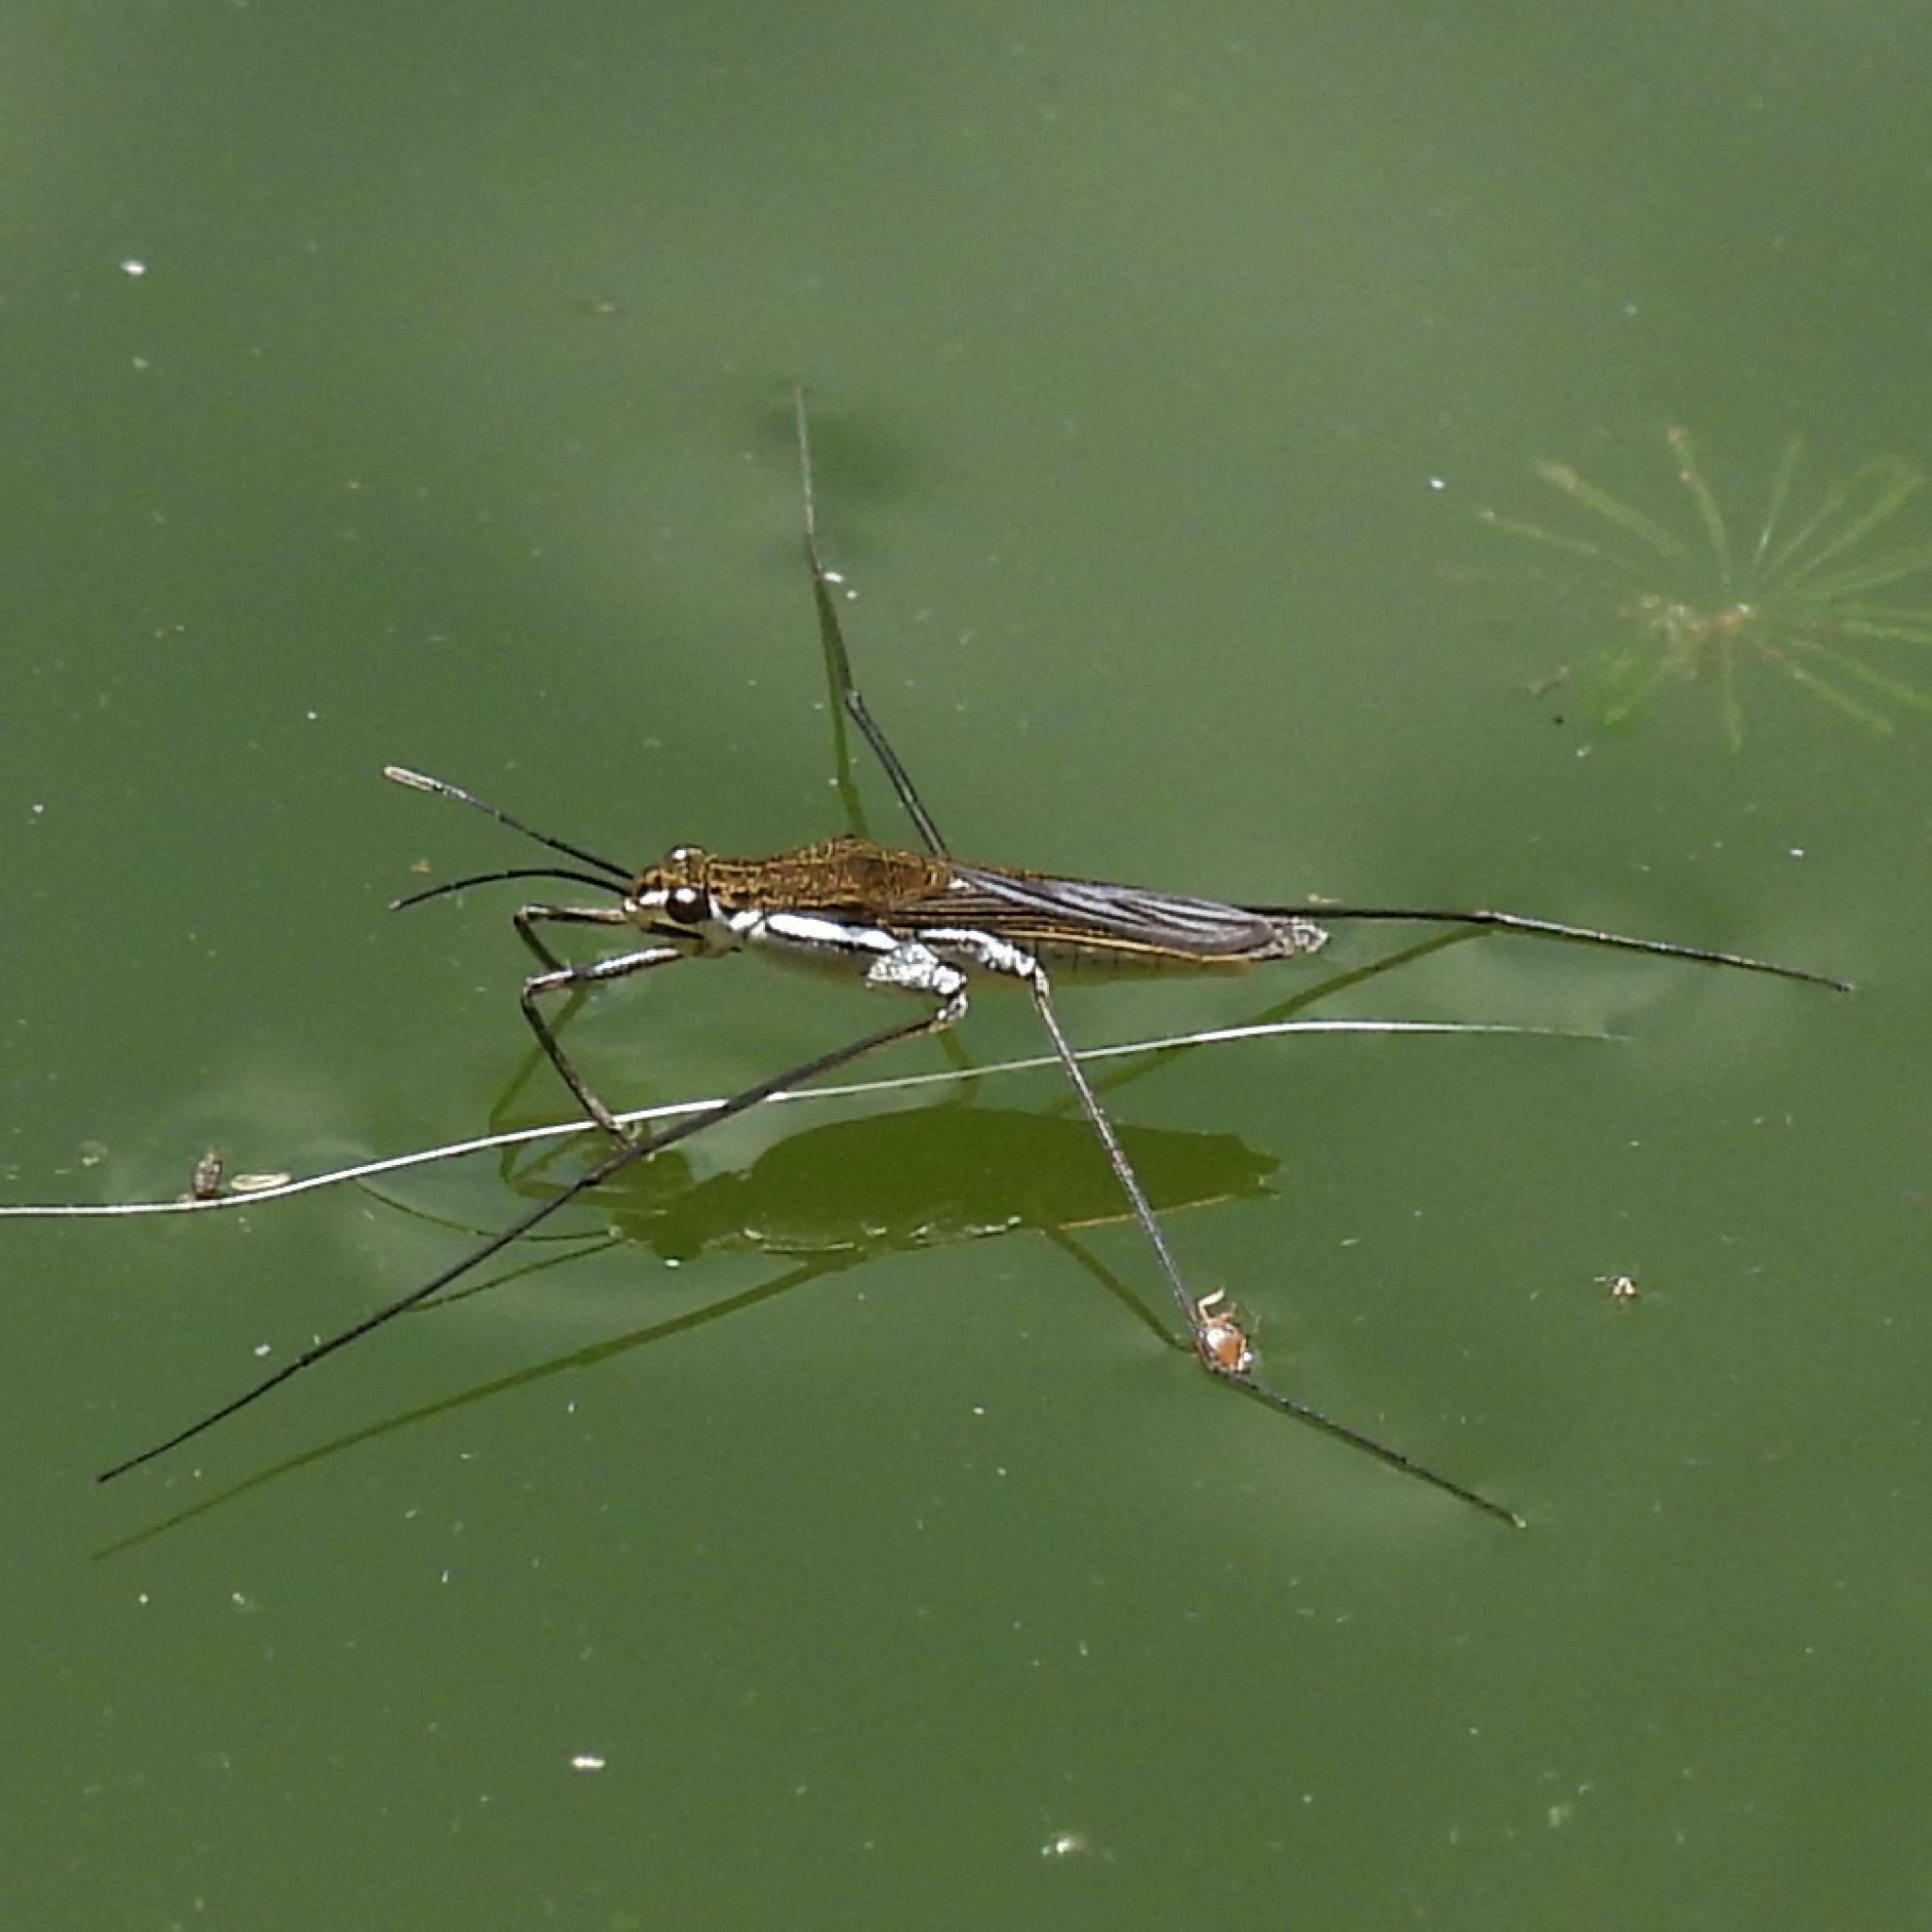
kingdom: Animalia
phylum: Arthropoda
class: Insecta
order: Hemiptera
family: Gerridae
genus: Gerris
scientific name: Gerris swakopensis
